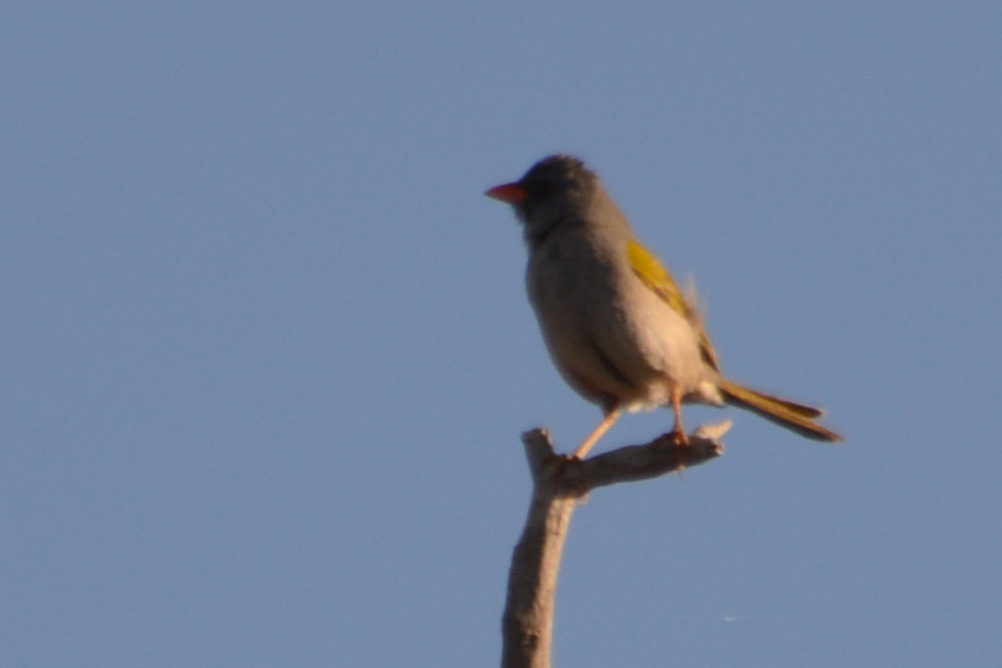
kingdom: Animalia
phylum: Chordata
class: Aves
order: Passeriformes
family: Thraupidae
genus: Embernagra
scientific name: Embernagra platensis
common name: Pampa finch
